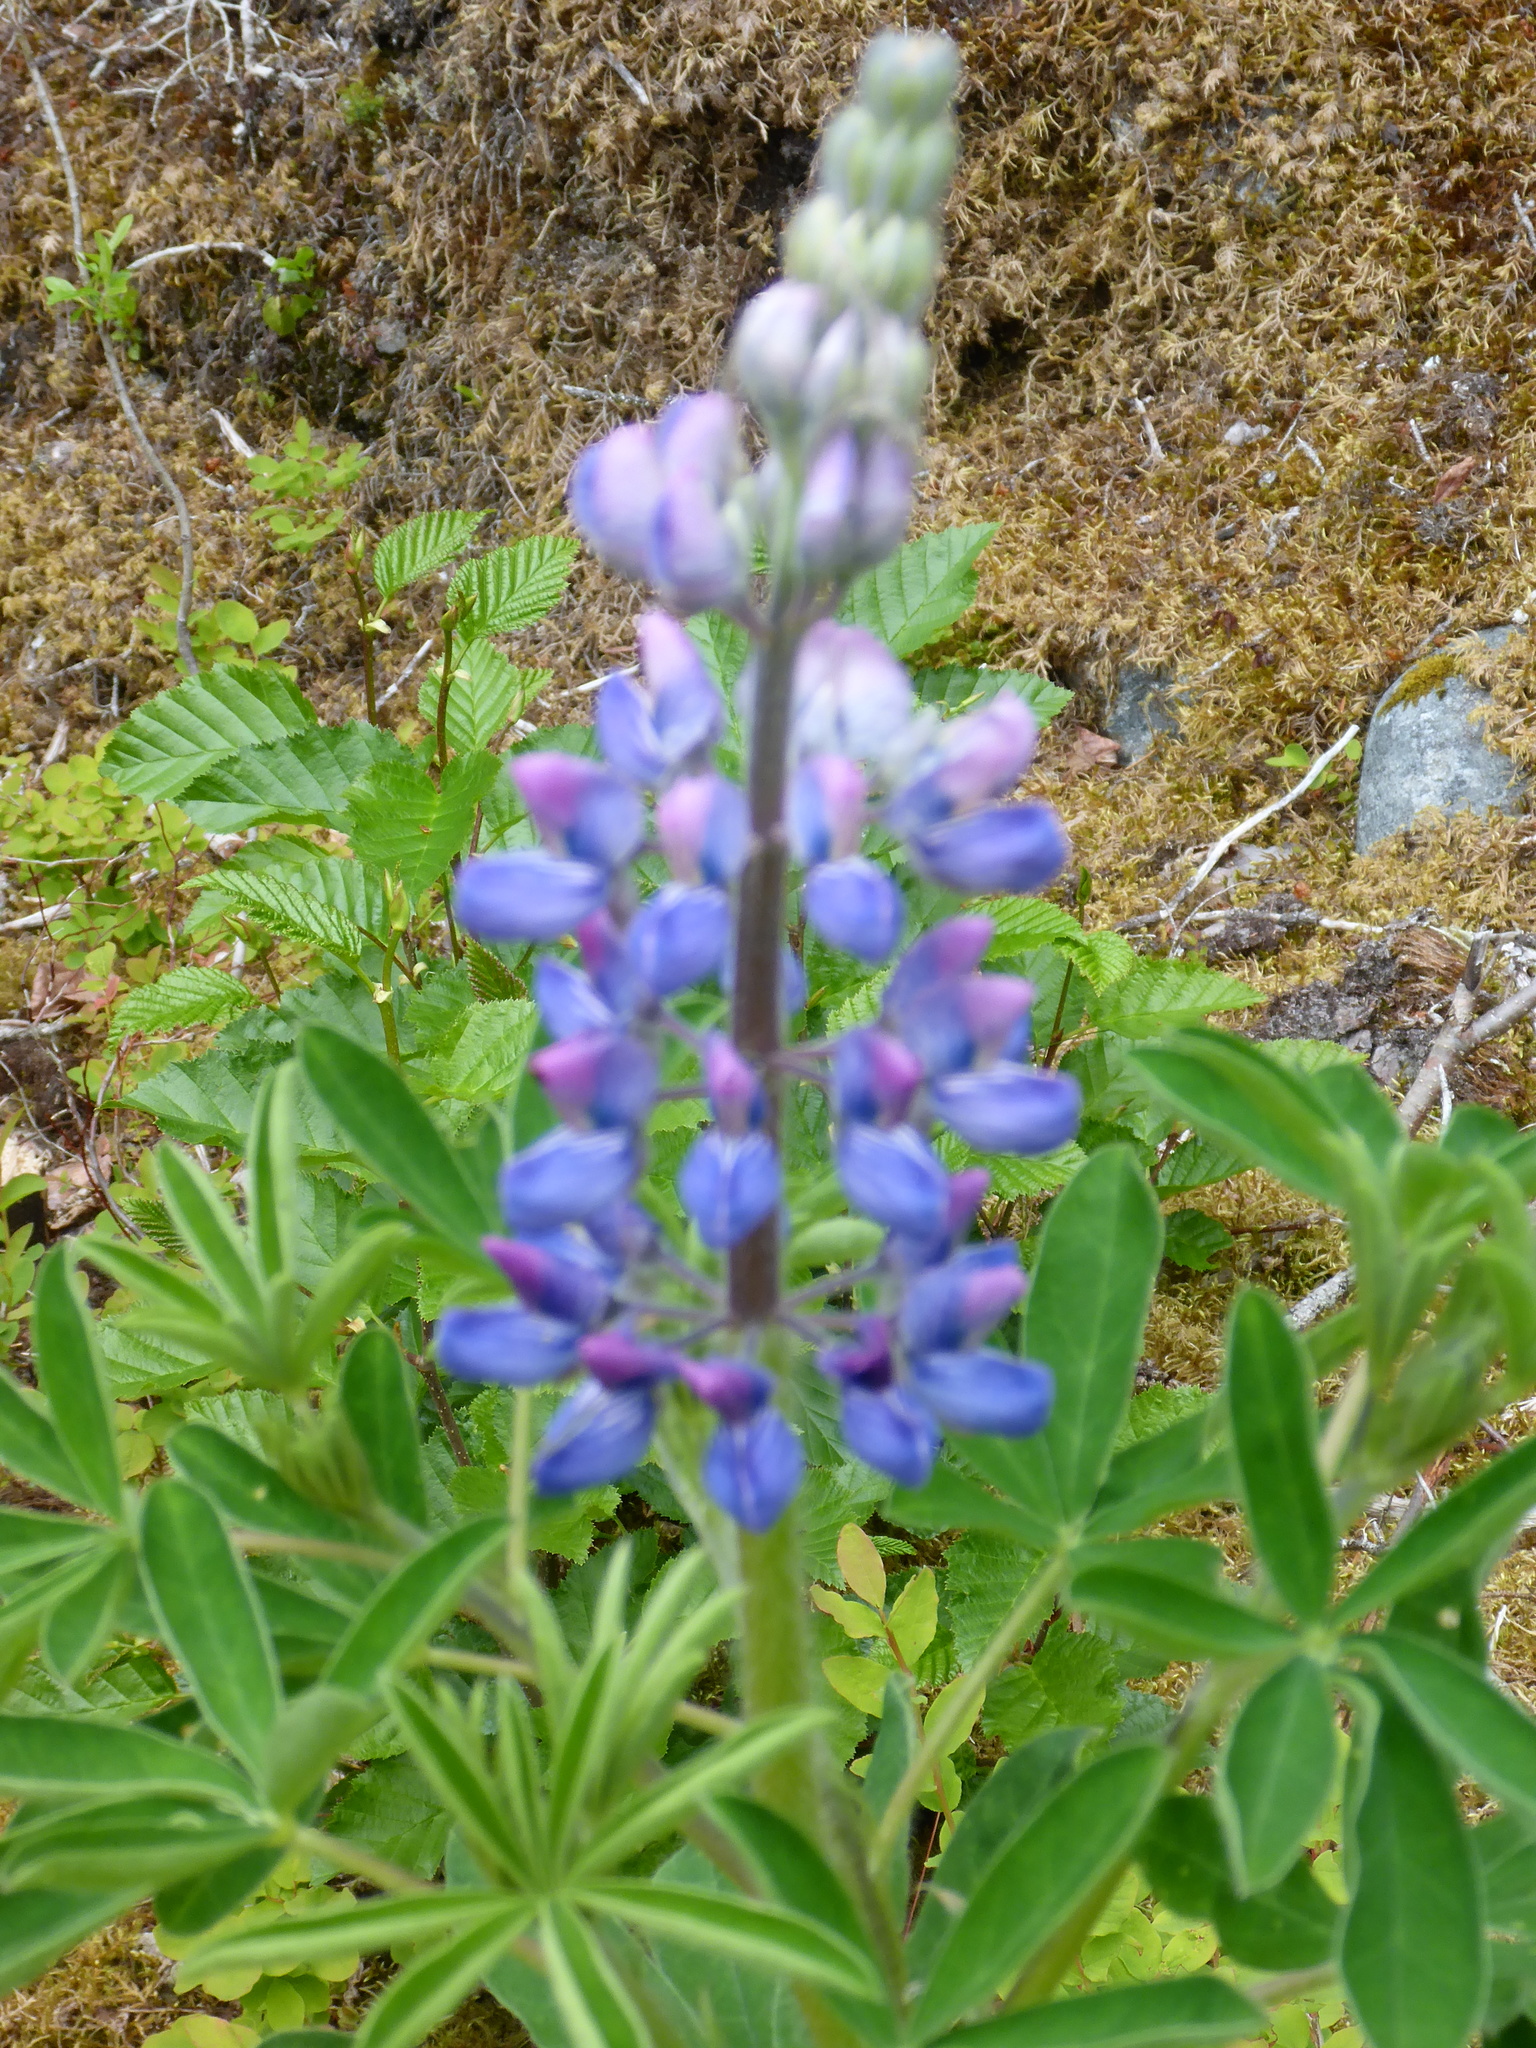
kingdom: Plantae
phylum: Tracheophyta
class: Magnoliopsida
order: Fabales
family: Fabaceae
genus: Lupinus
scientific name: Lupinus nootkatensis
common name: Nootka lupine
